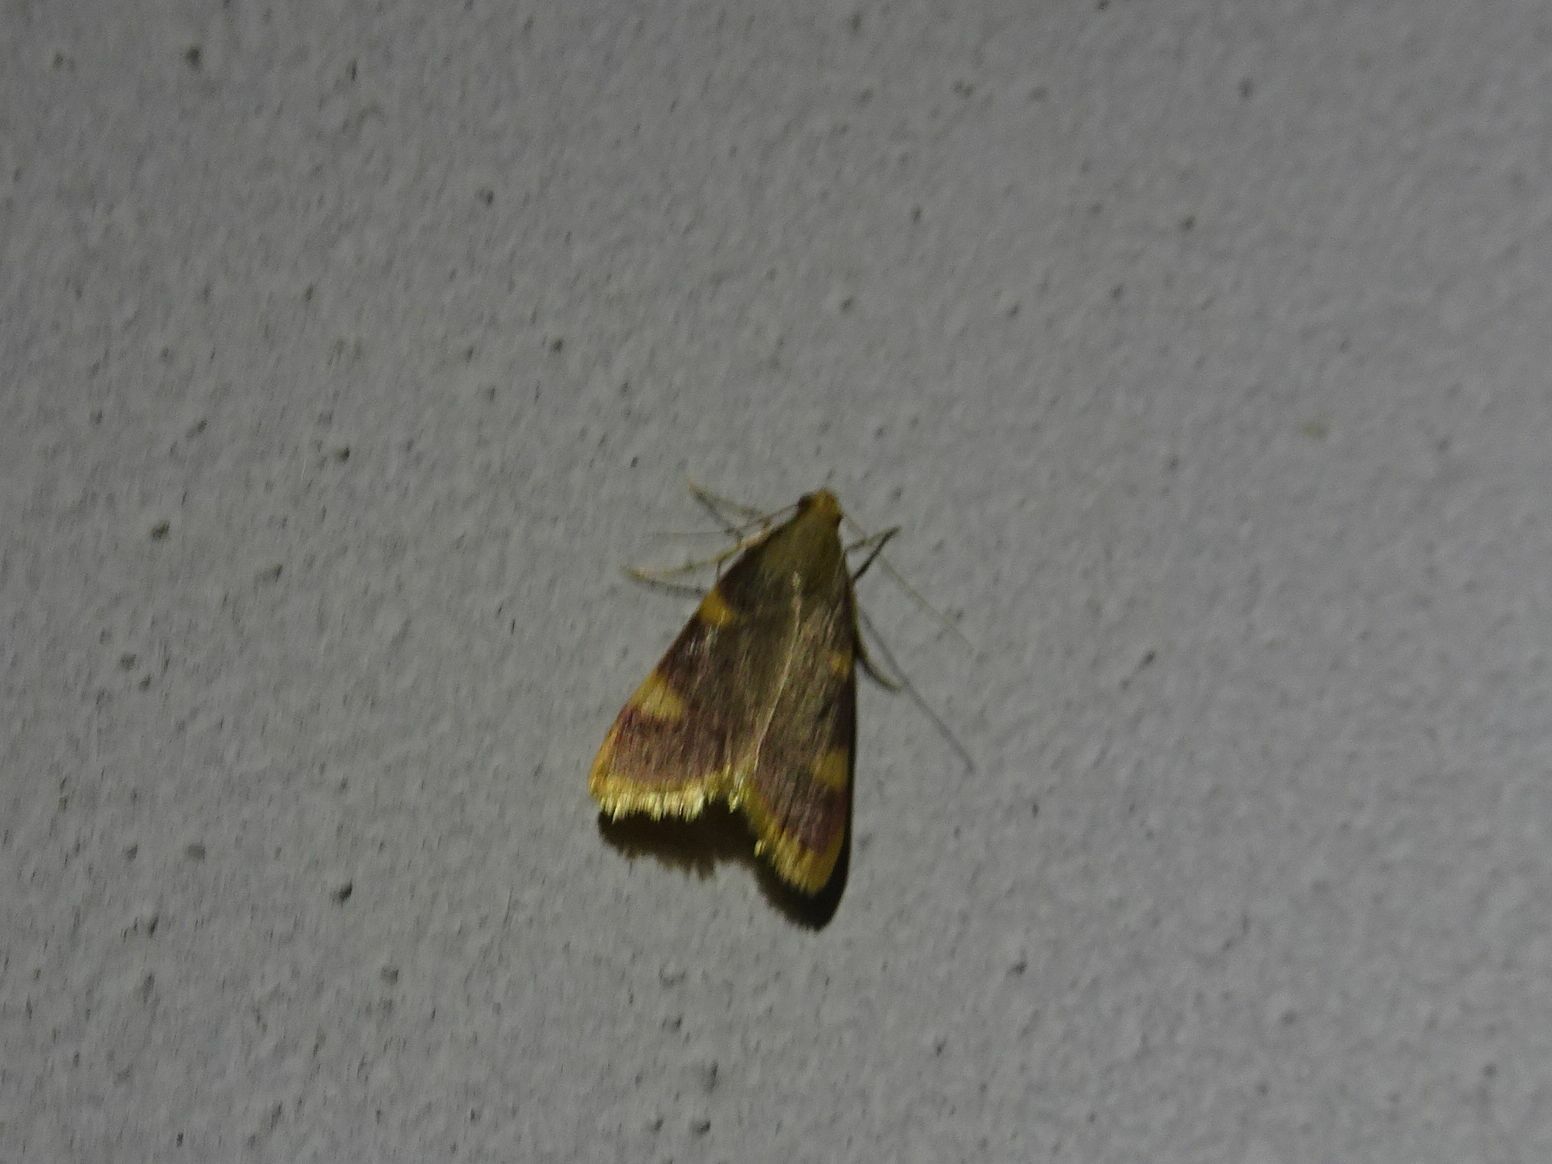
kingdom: Animalia
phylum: Arthropoda
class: Insecta
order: Lepidoptera
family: Pyralidae
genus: Hypsopygia
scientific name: Hypsopygia costalis
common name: Gold triangle
